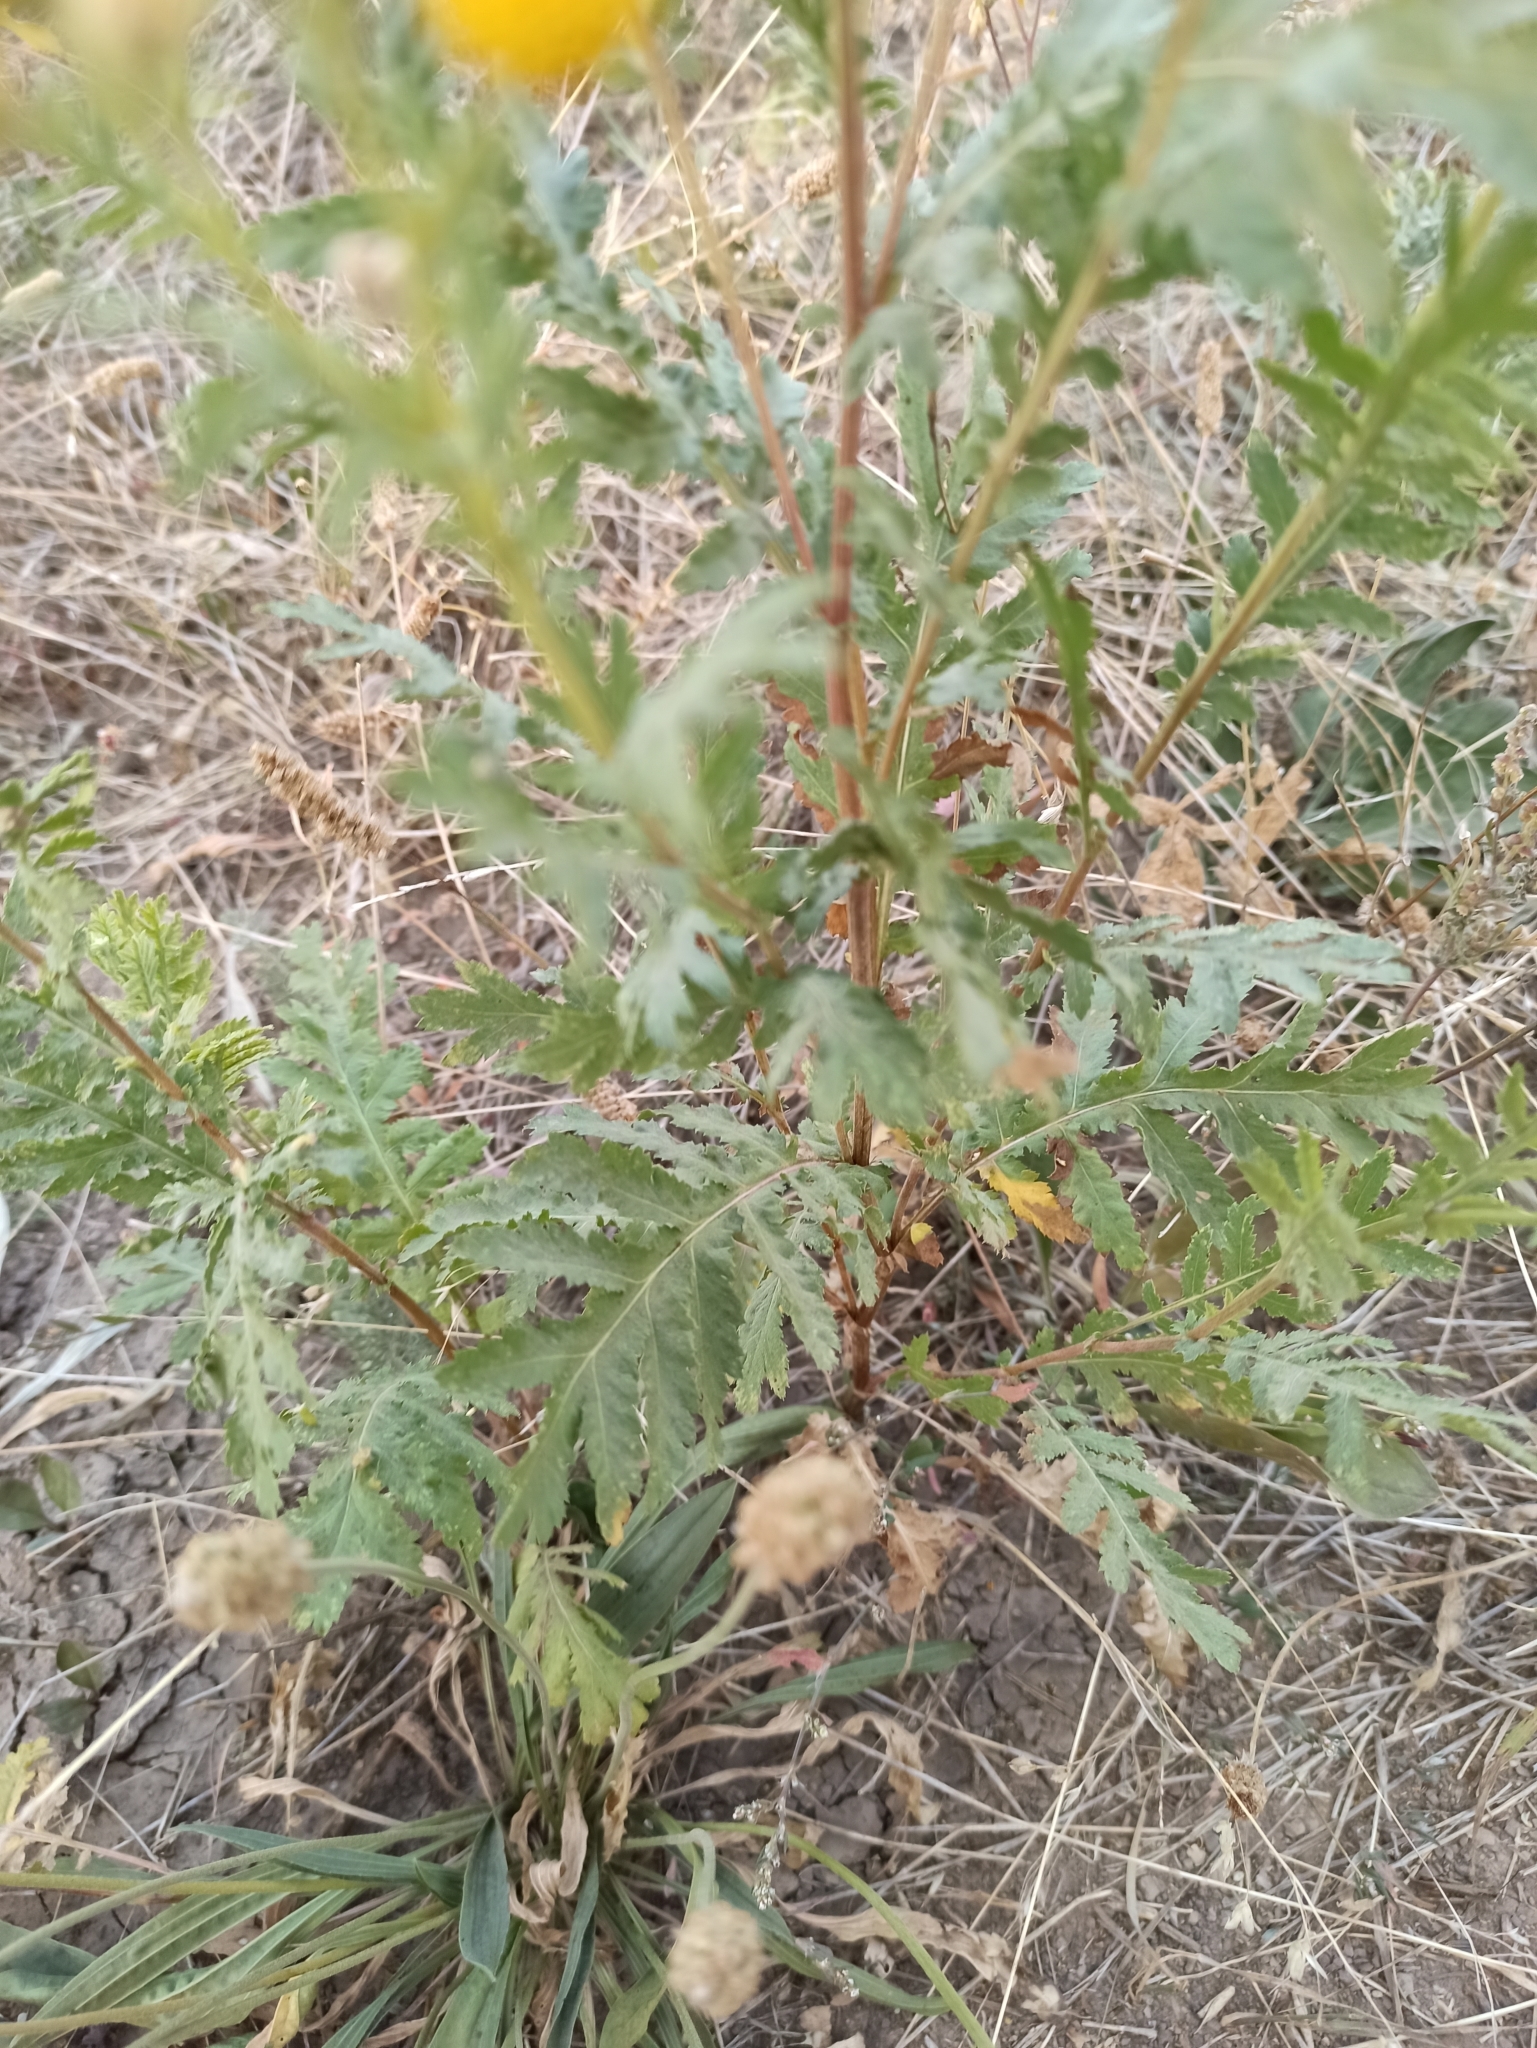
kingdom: Plantae
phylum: Tracheophyta
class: Magnoliopsida
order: Asterales
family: Asteraceae
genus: Tanacetum
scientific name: Tanacetum vulgare
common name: Common tansy
